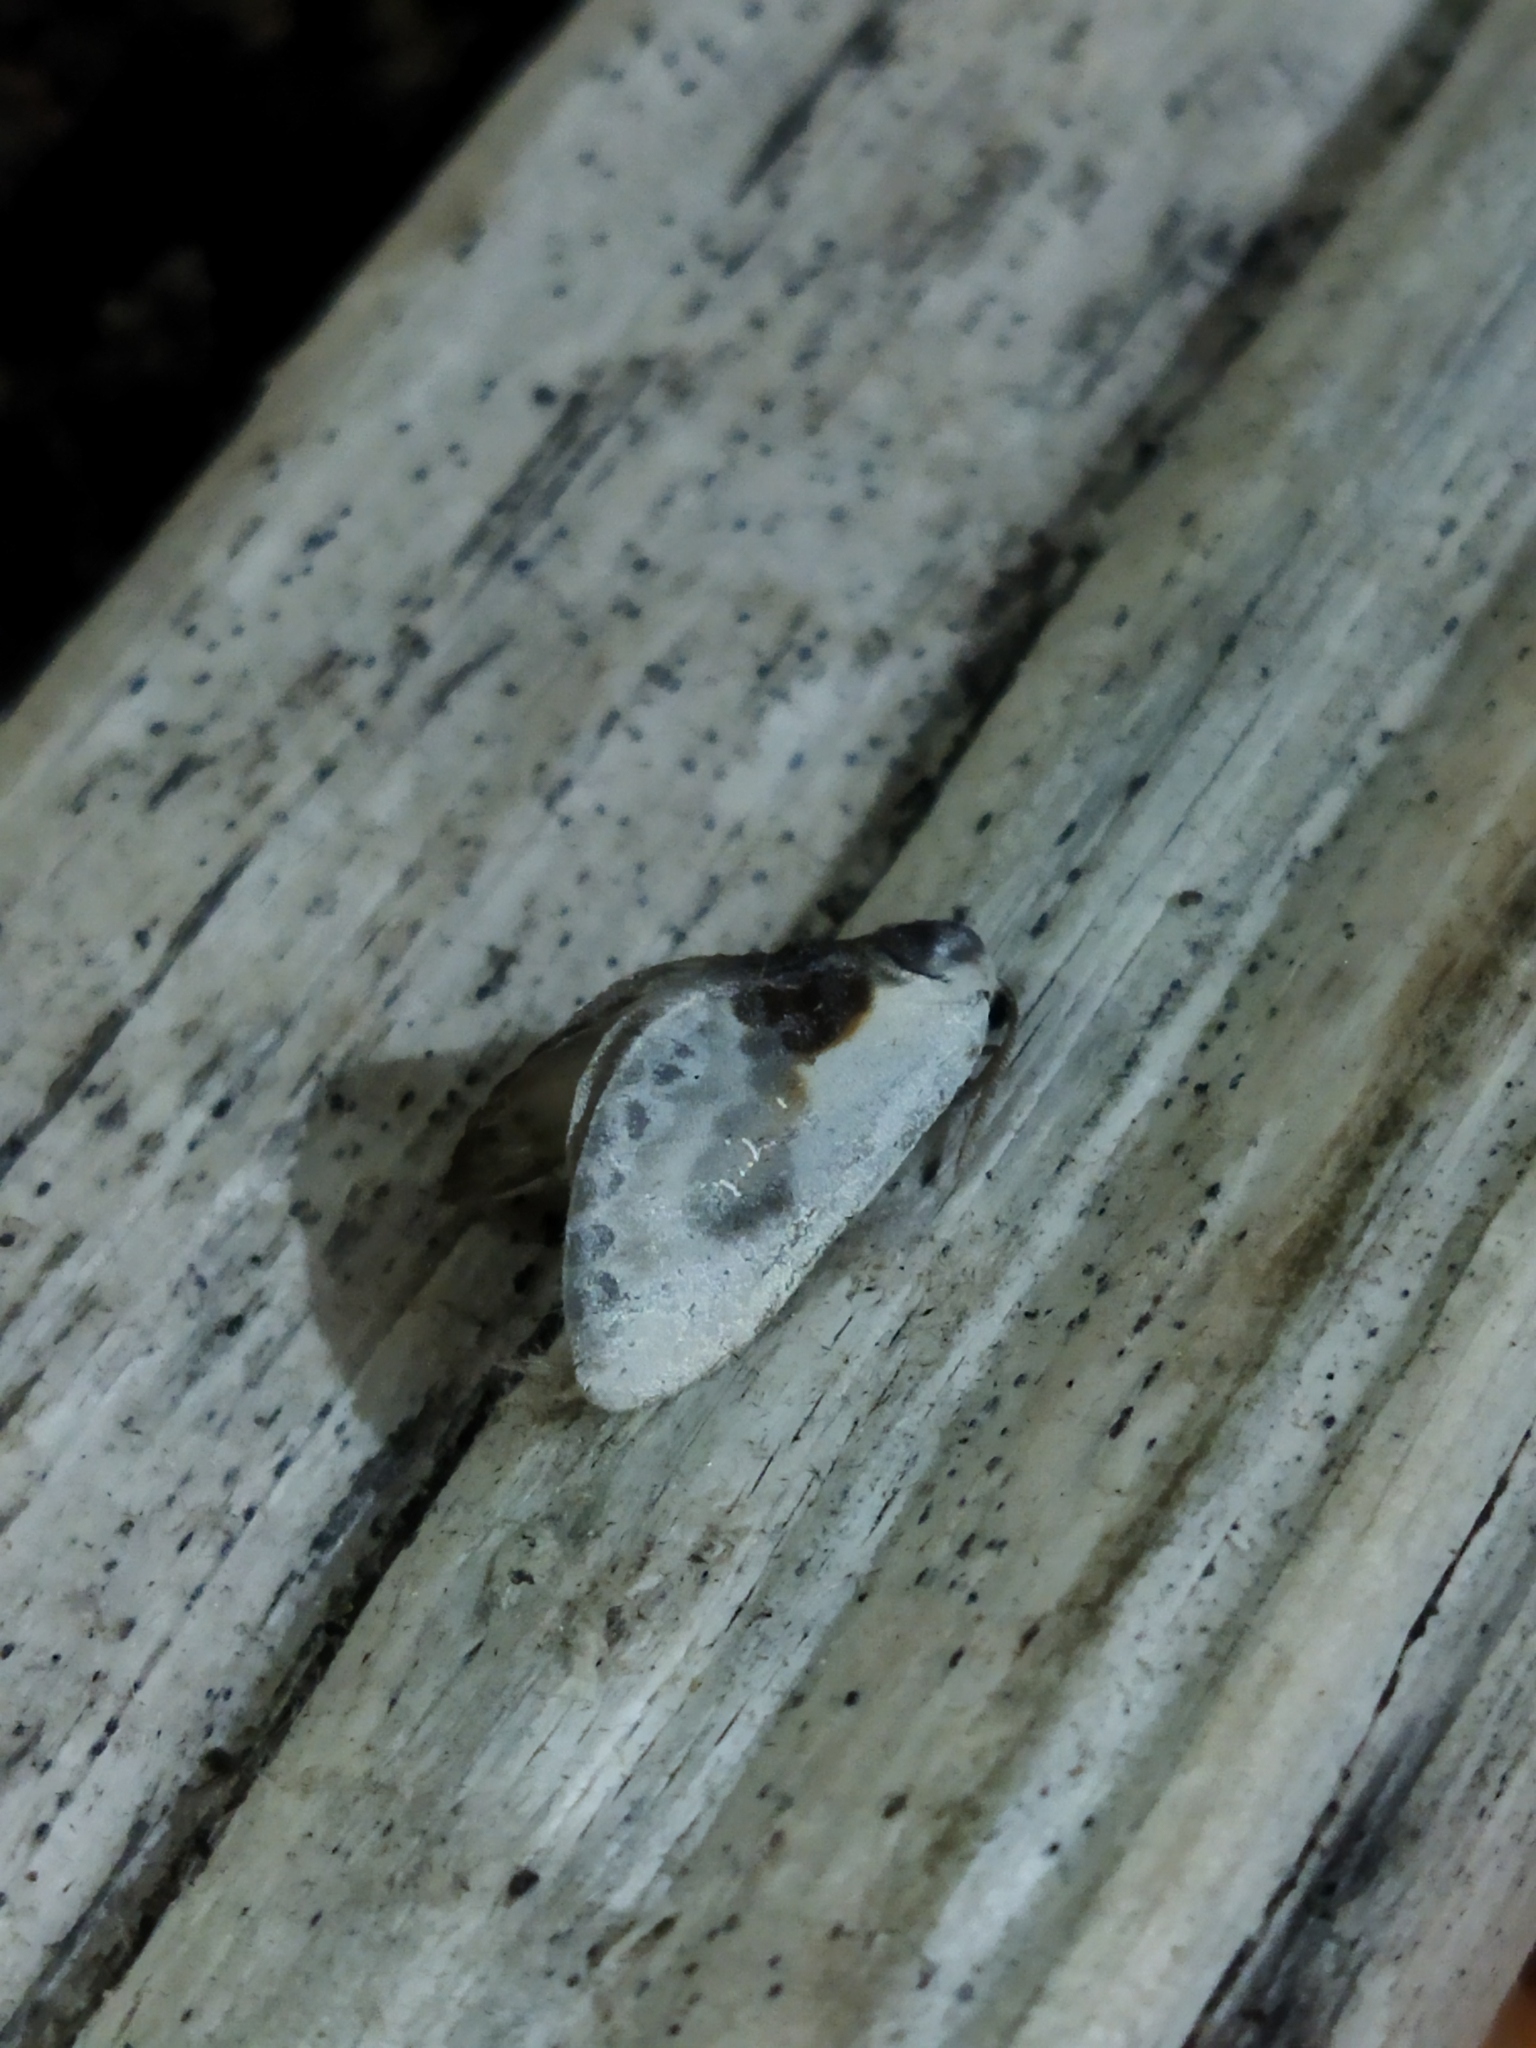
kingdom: Animalia
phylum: Arthropoda
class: Insecta
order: Lepidoptera
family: Drepanidae
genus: Cilix
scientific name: Cilix glaucata
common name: Chinese character
